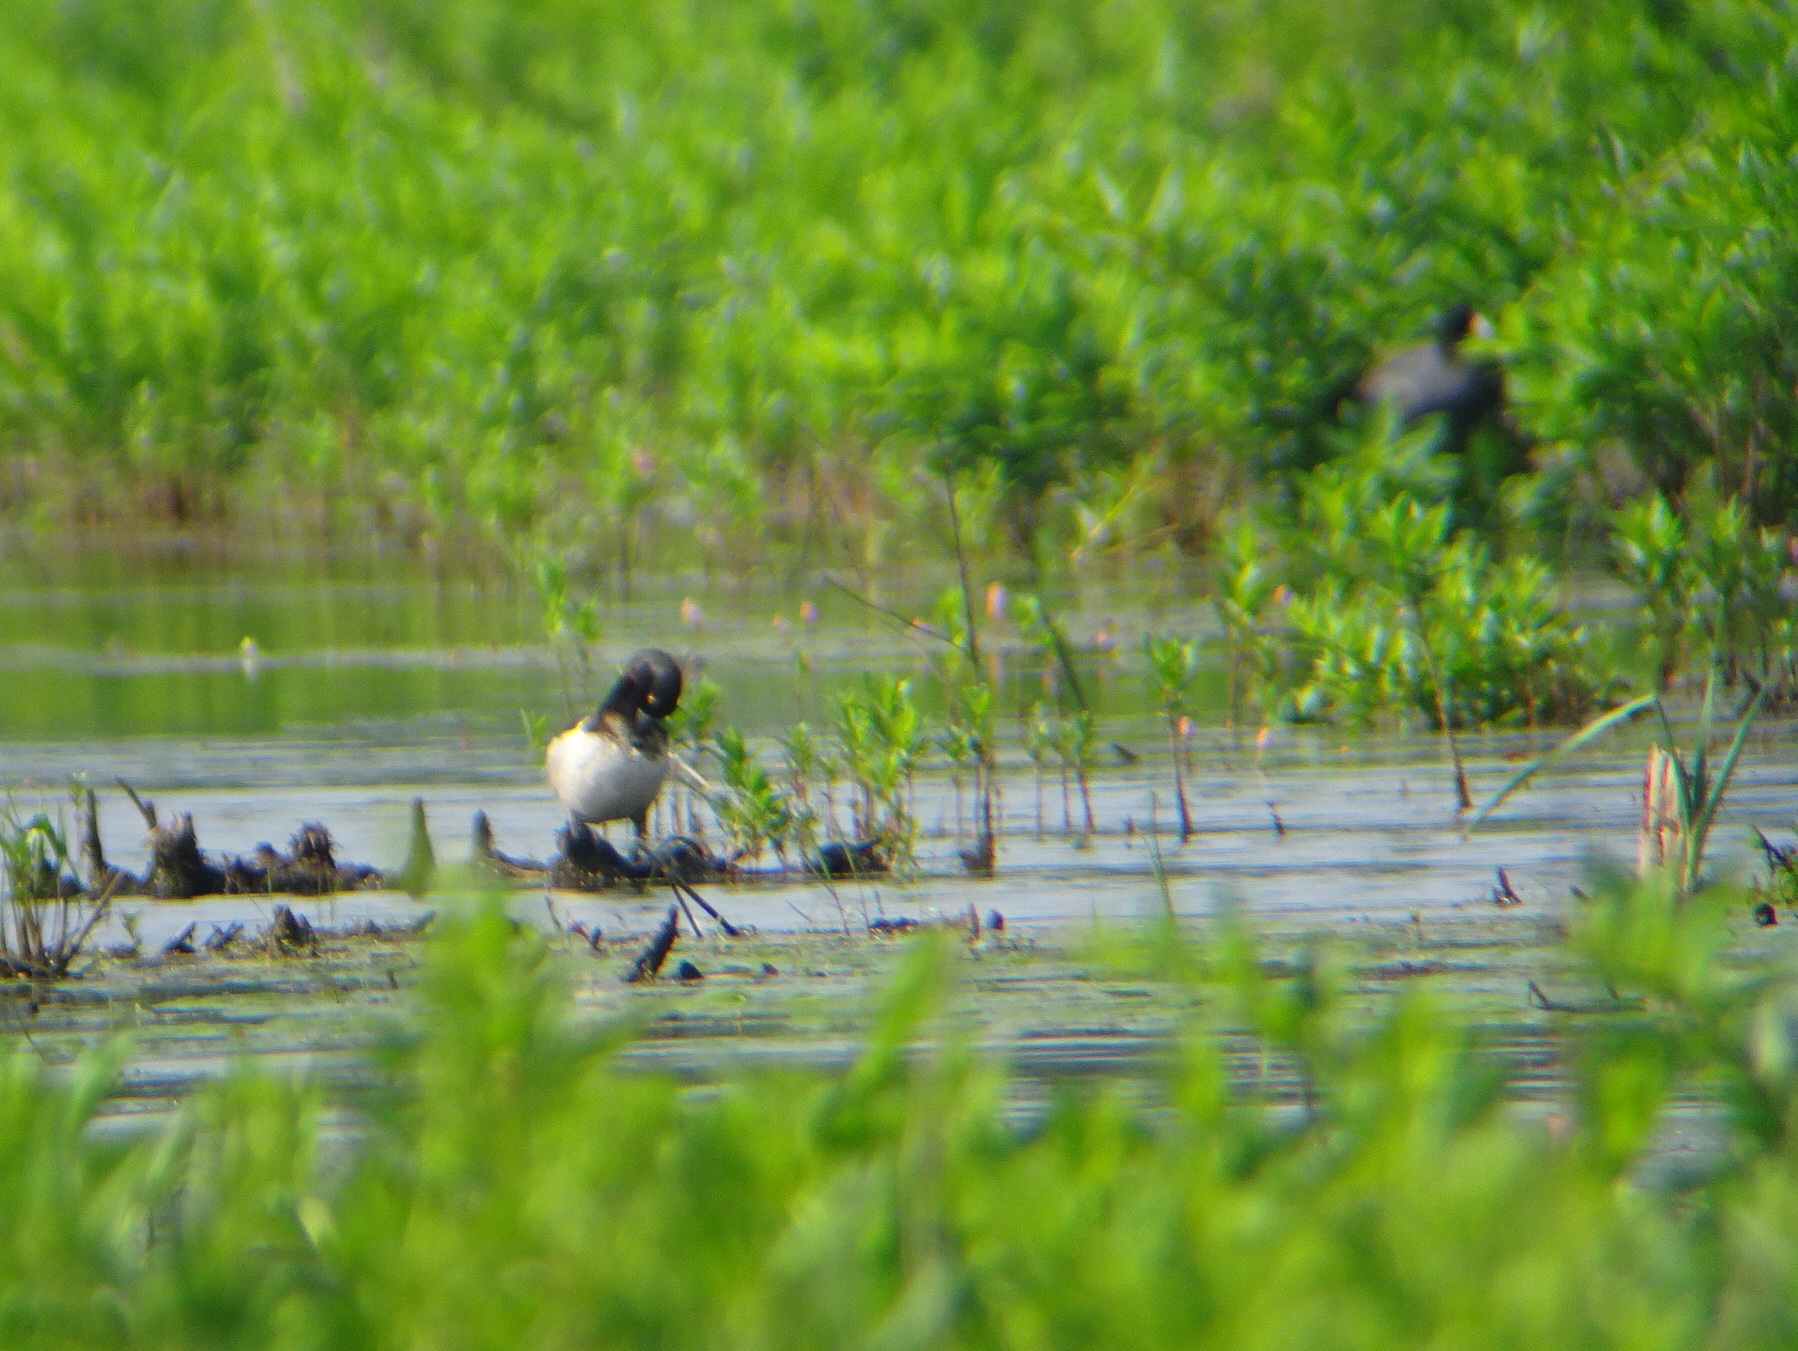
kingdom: Animalia
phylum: Chordata
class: Aves
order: Anseriformes
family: Anatidae
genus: Aythya
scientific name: Aythya collaris
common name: Ring-necked duck
